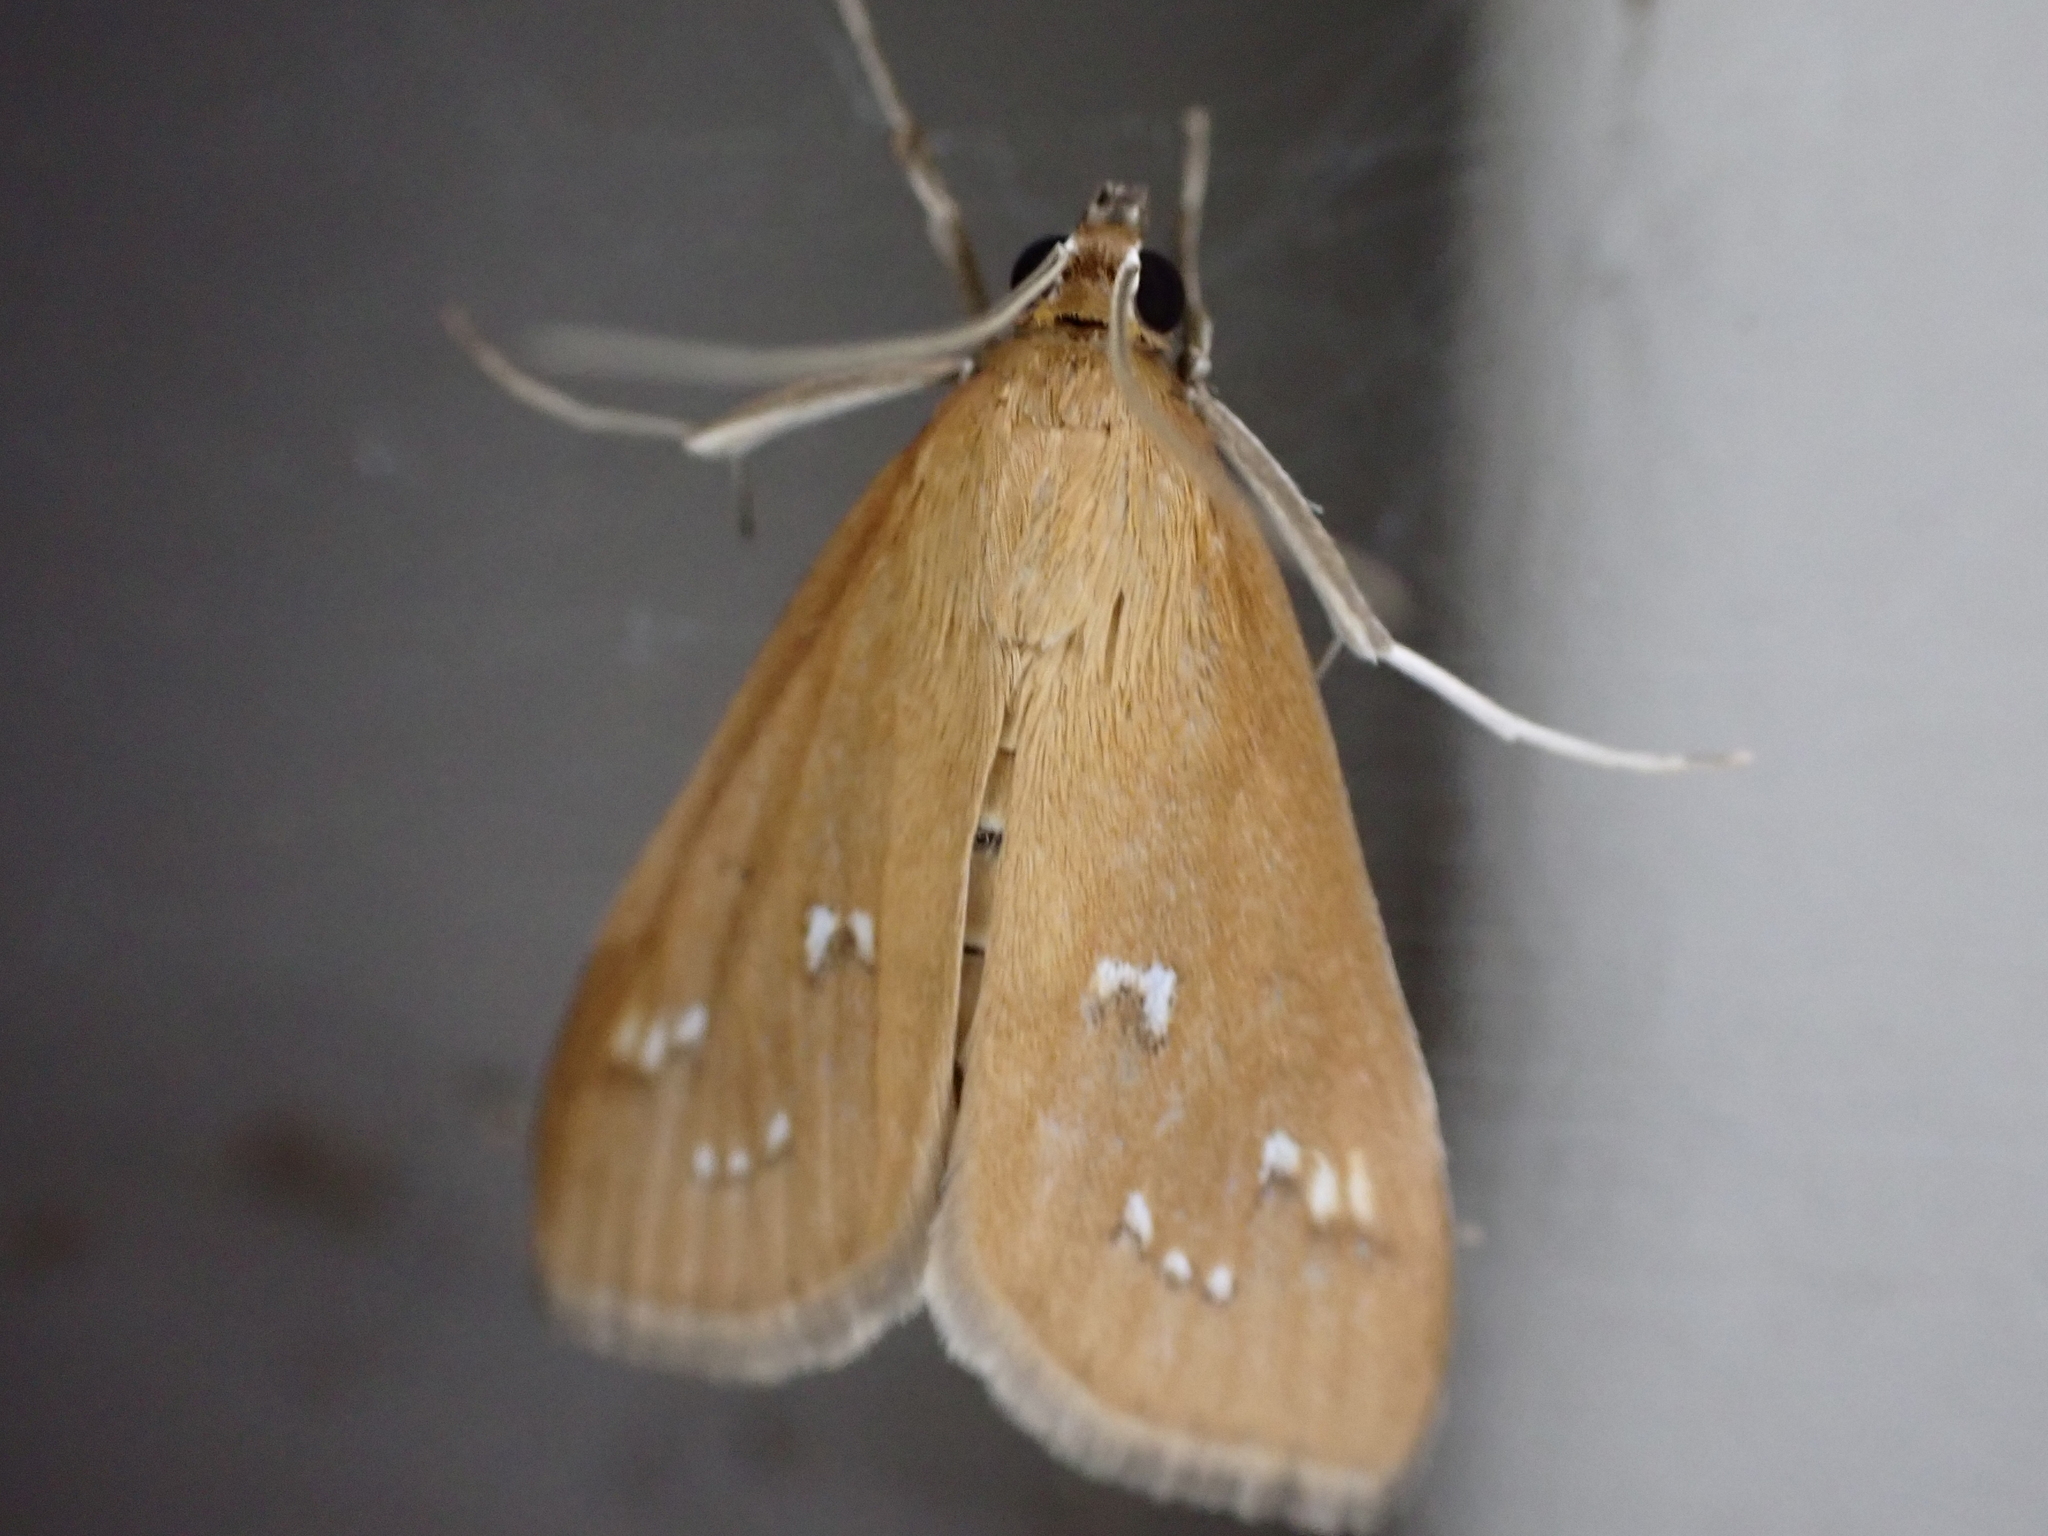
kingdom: Animalia
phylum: Arthropoda
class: Insecta
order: Lepidoptera
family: Crambidae
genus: Diastictis
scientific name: Diastictis ventralis
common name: White-spotted brown
